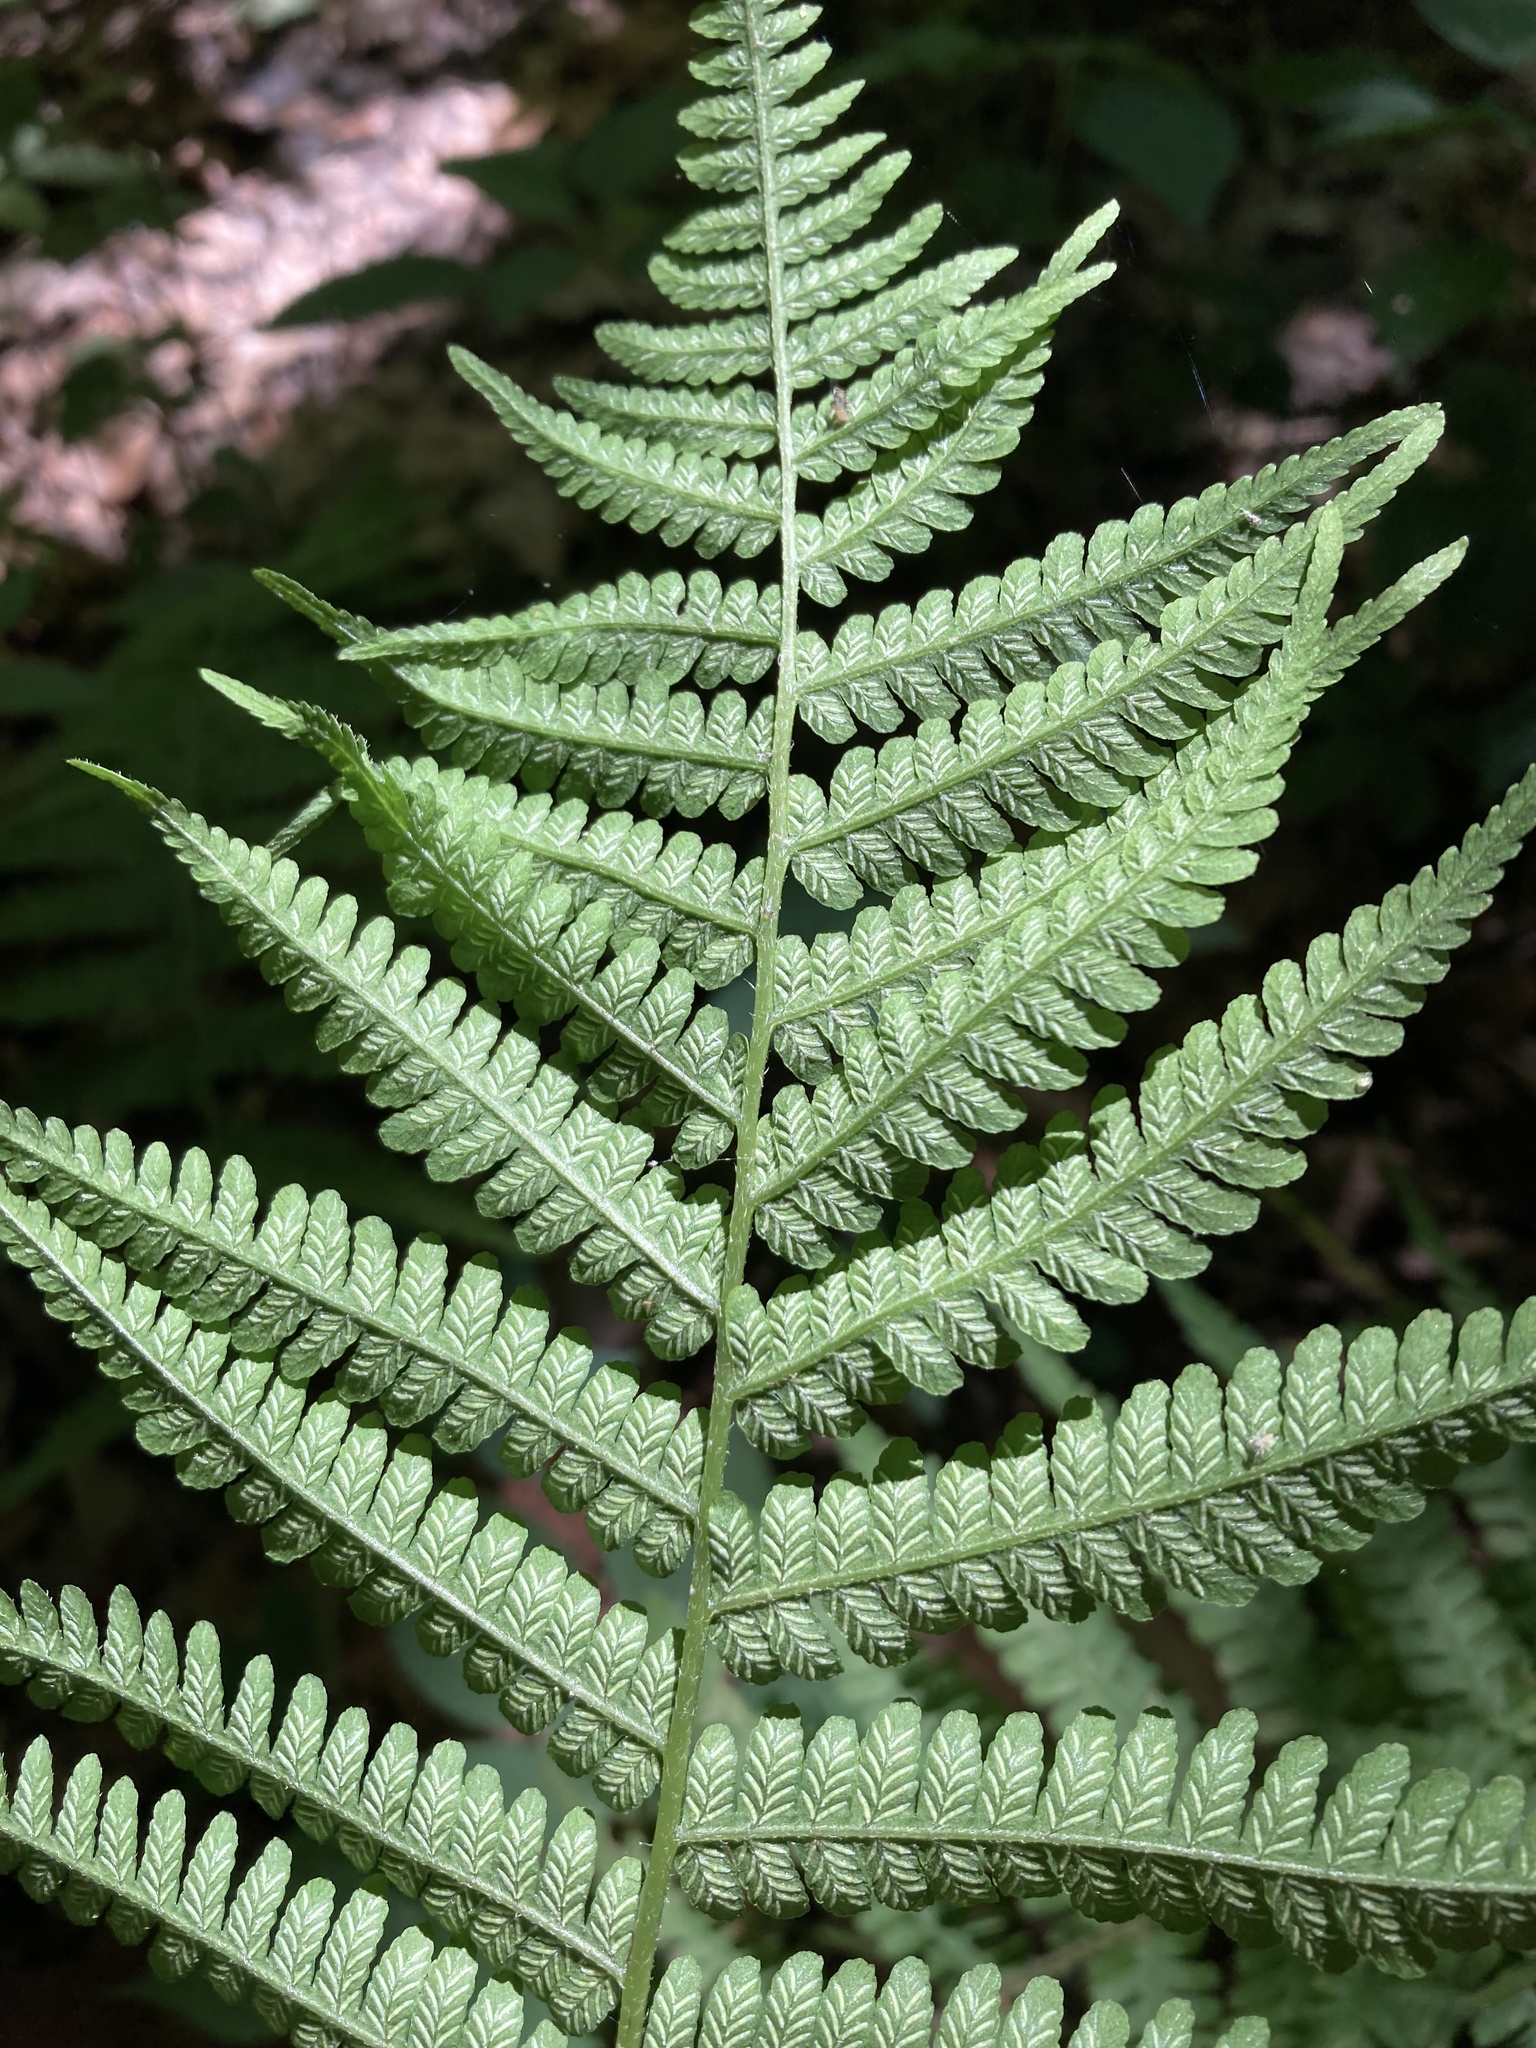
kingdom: Plantae
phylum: Tracheophyta
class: Polypodiopsida
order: Polypodiales
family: Athyriaceae
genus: Deparia
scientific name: Deparia acrostichoides
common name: Silver false spleenwort
